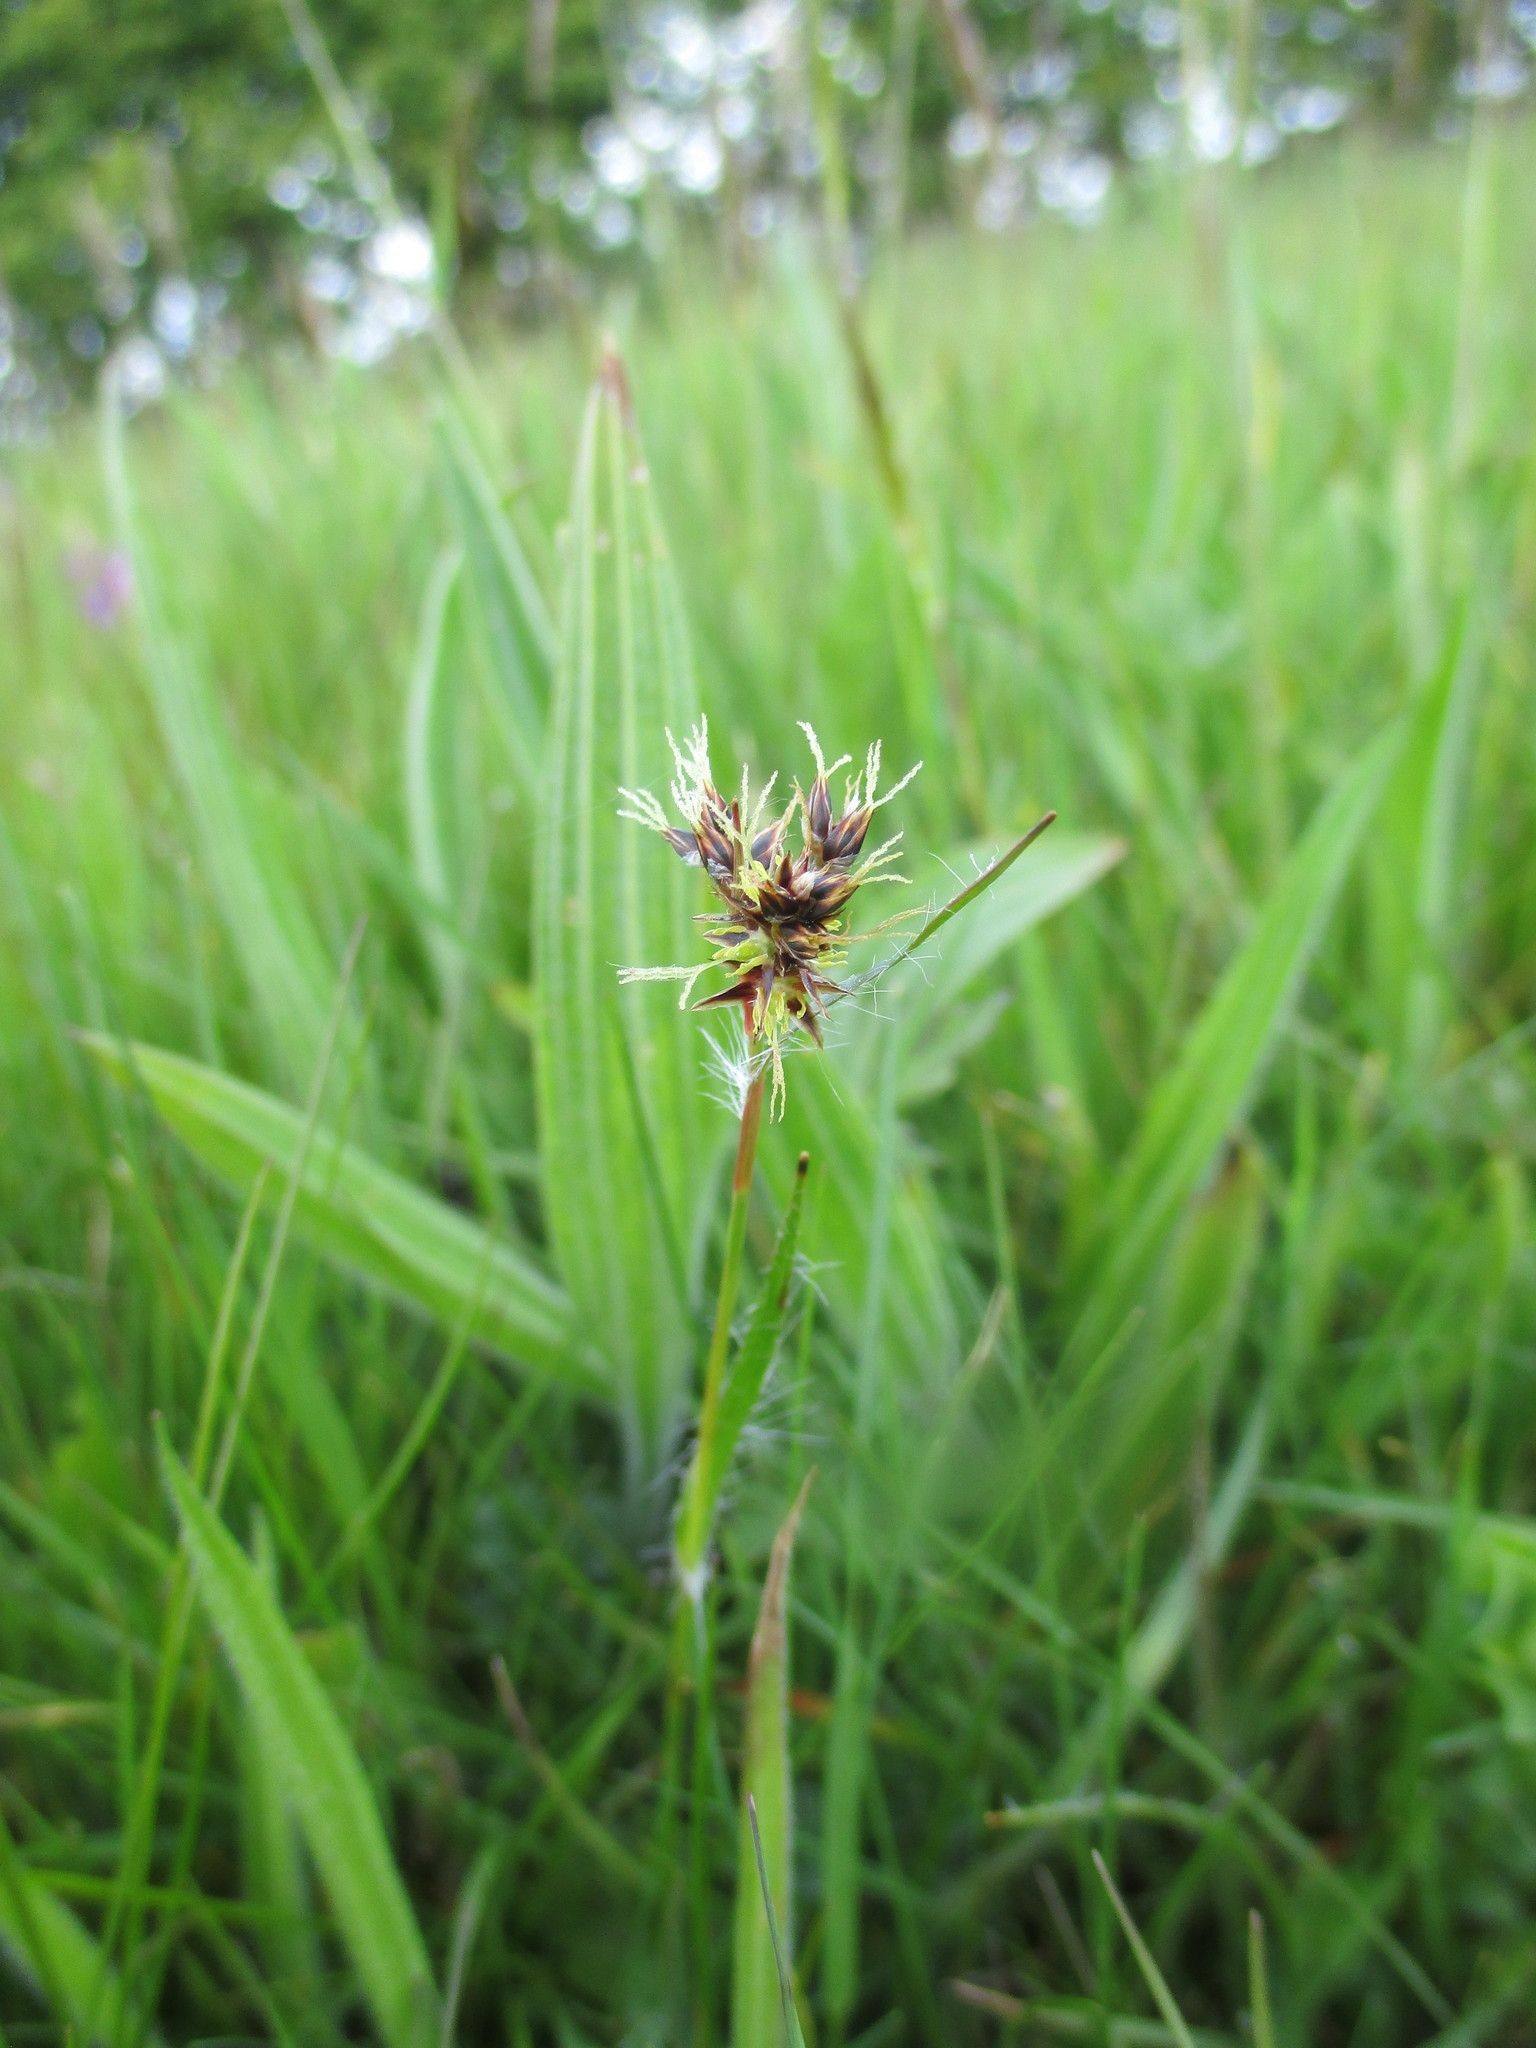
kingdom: Plantae
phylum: Tracheophyta
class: Liliopsida
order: Poales
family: Juncaceae
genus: Luzula
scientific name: Luzula campestris
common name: Field wood-rush
